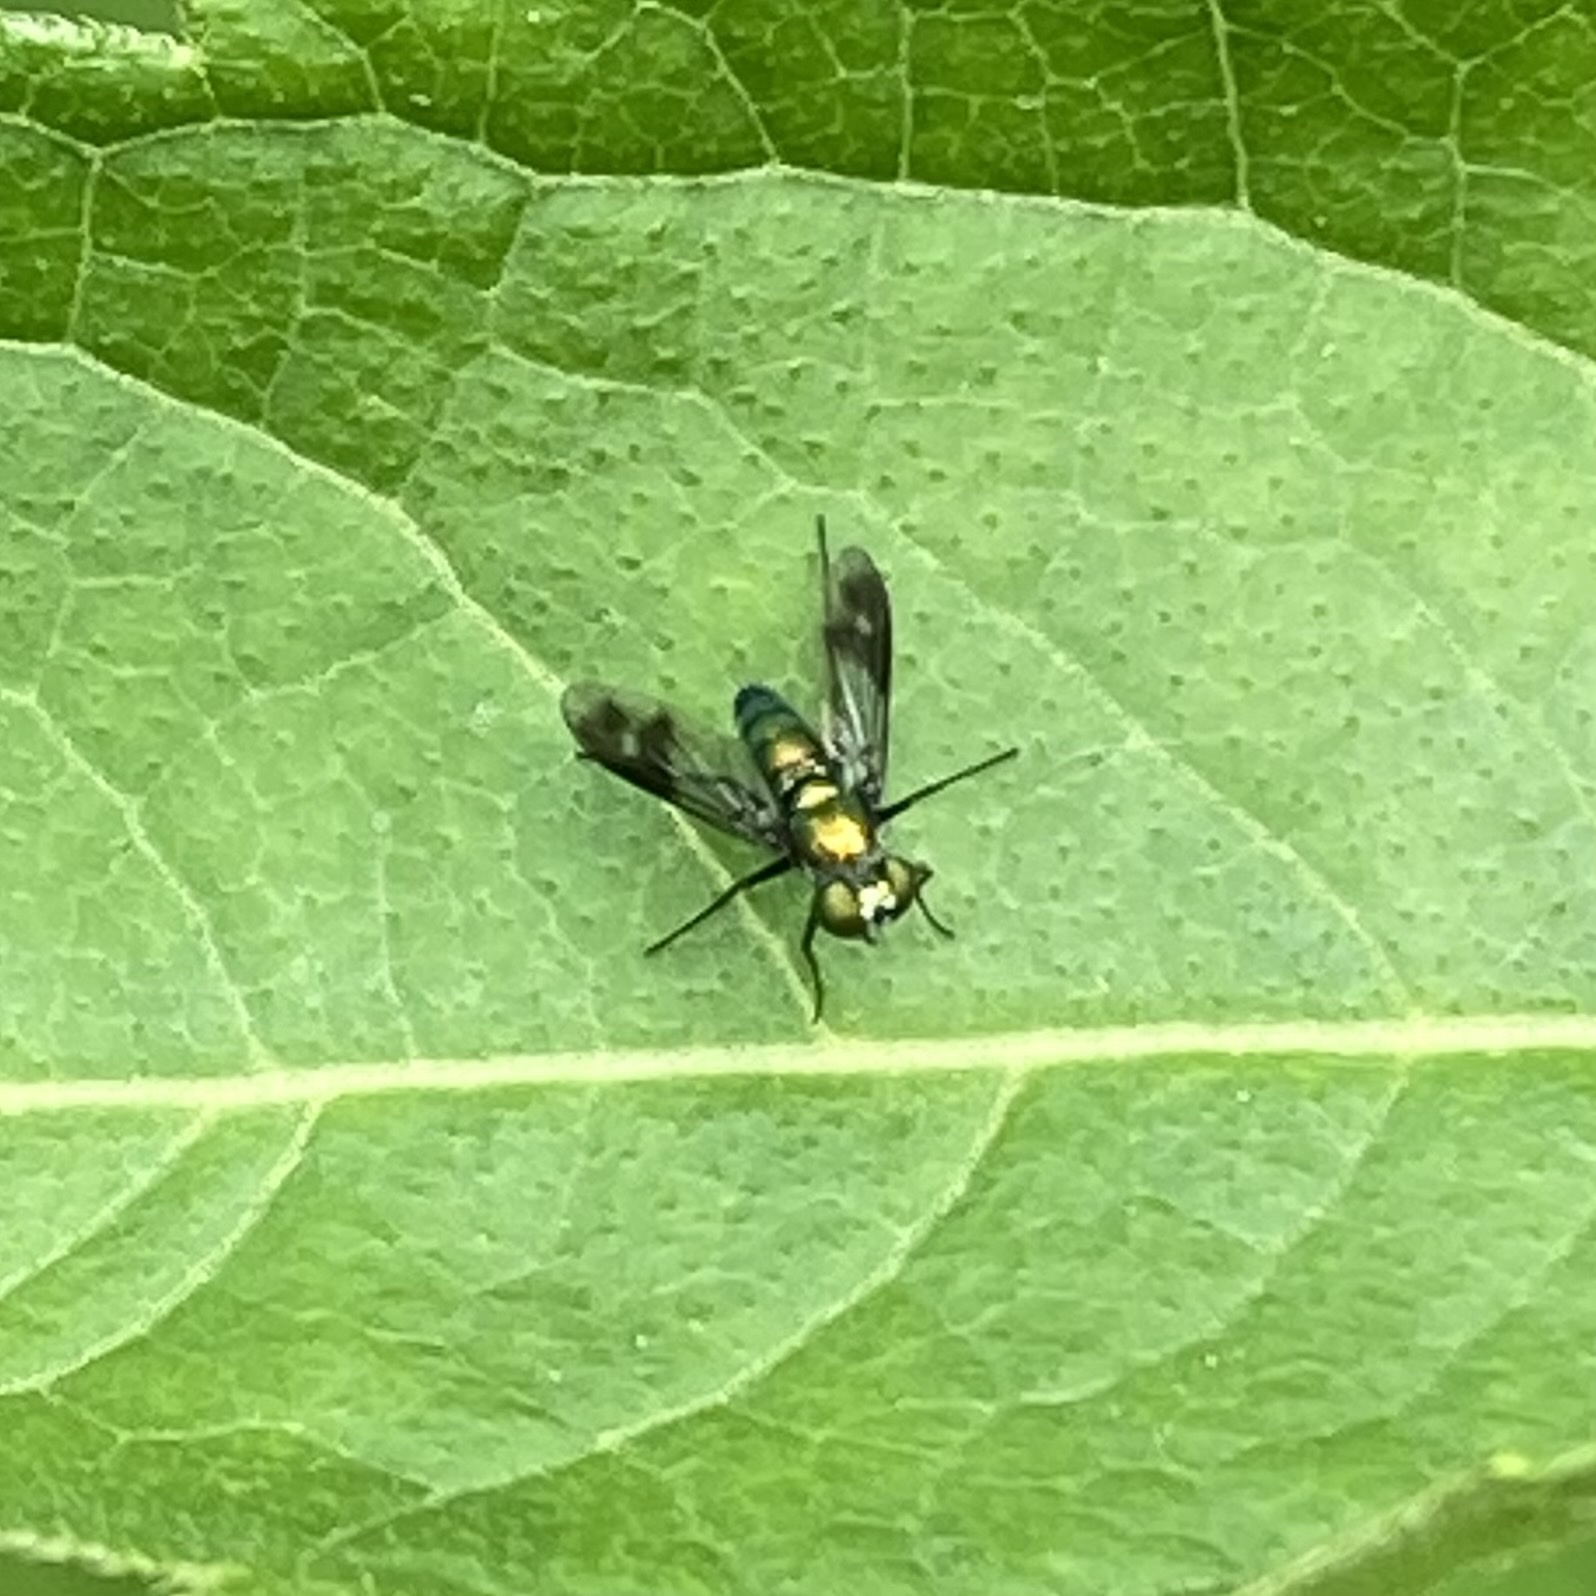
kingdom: Animalia
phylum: Arthropoda
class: Insecta
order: Diptera
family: Dolichopodidae
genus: Condylostylus
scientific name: Condylostylus patibulatus
